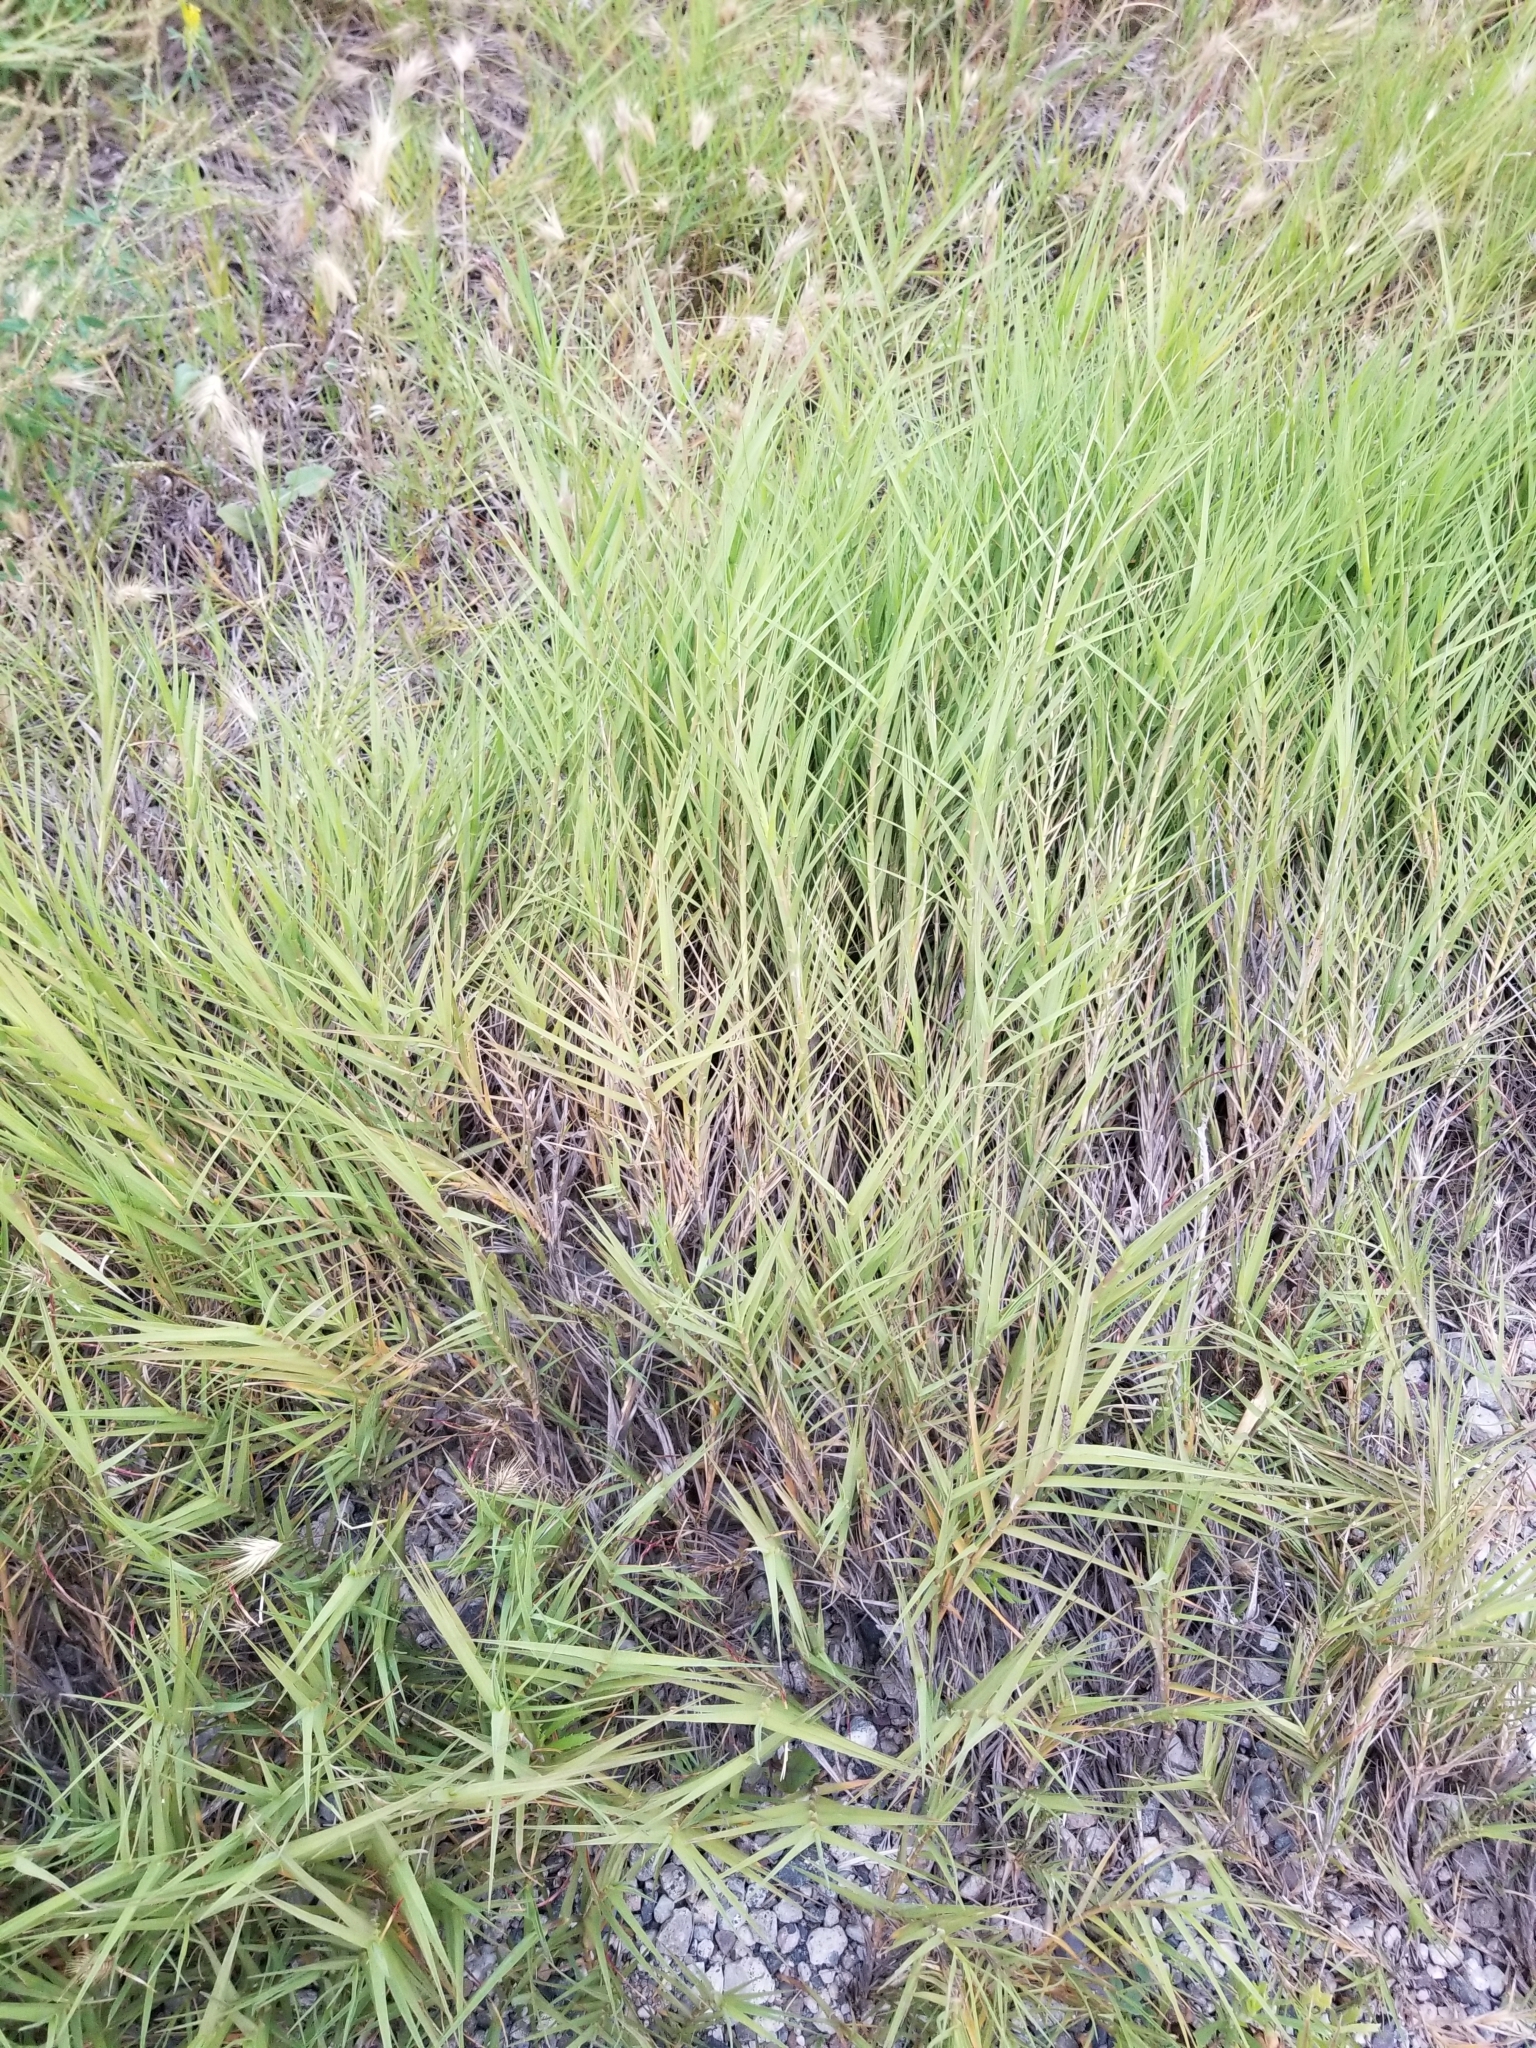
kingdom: Plantae
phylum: Tracheophyta
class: Liliopsida
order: Poales
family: Poaceae
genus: Distichlis
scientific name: Distichlis spicata
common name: Saltgrass
